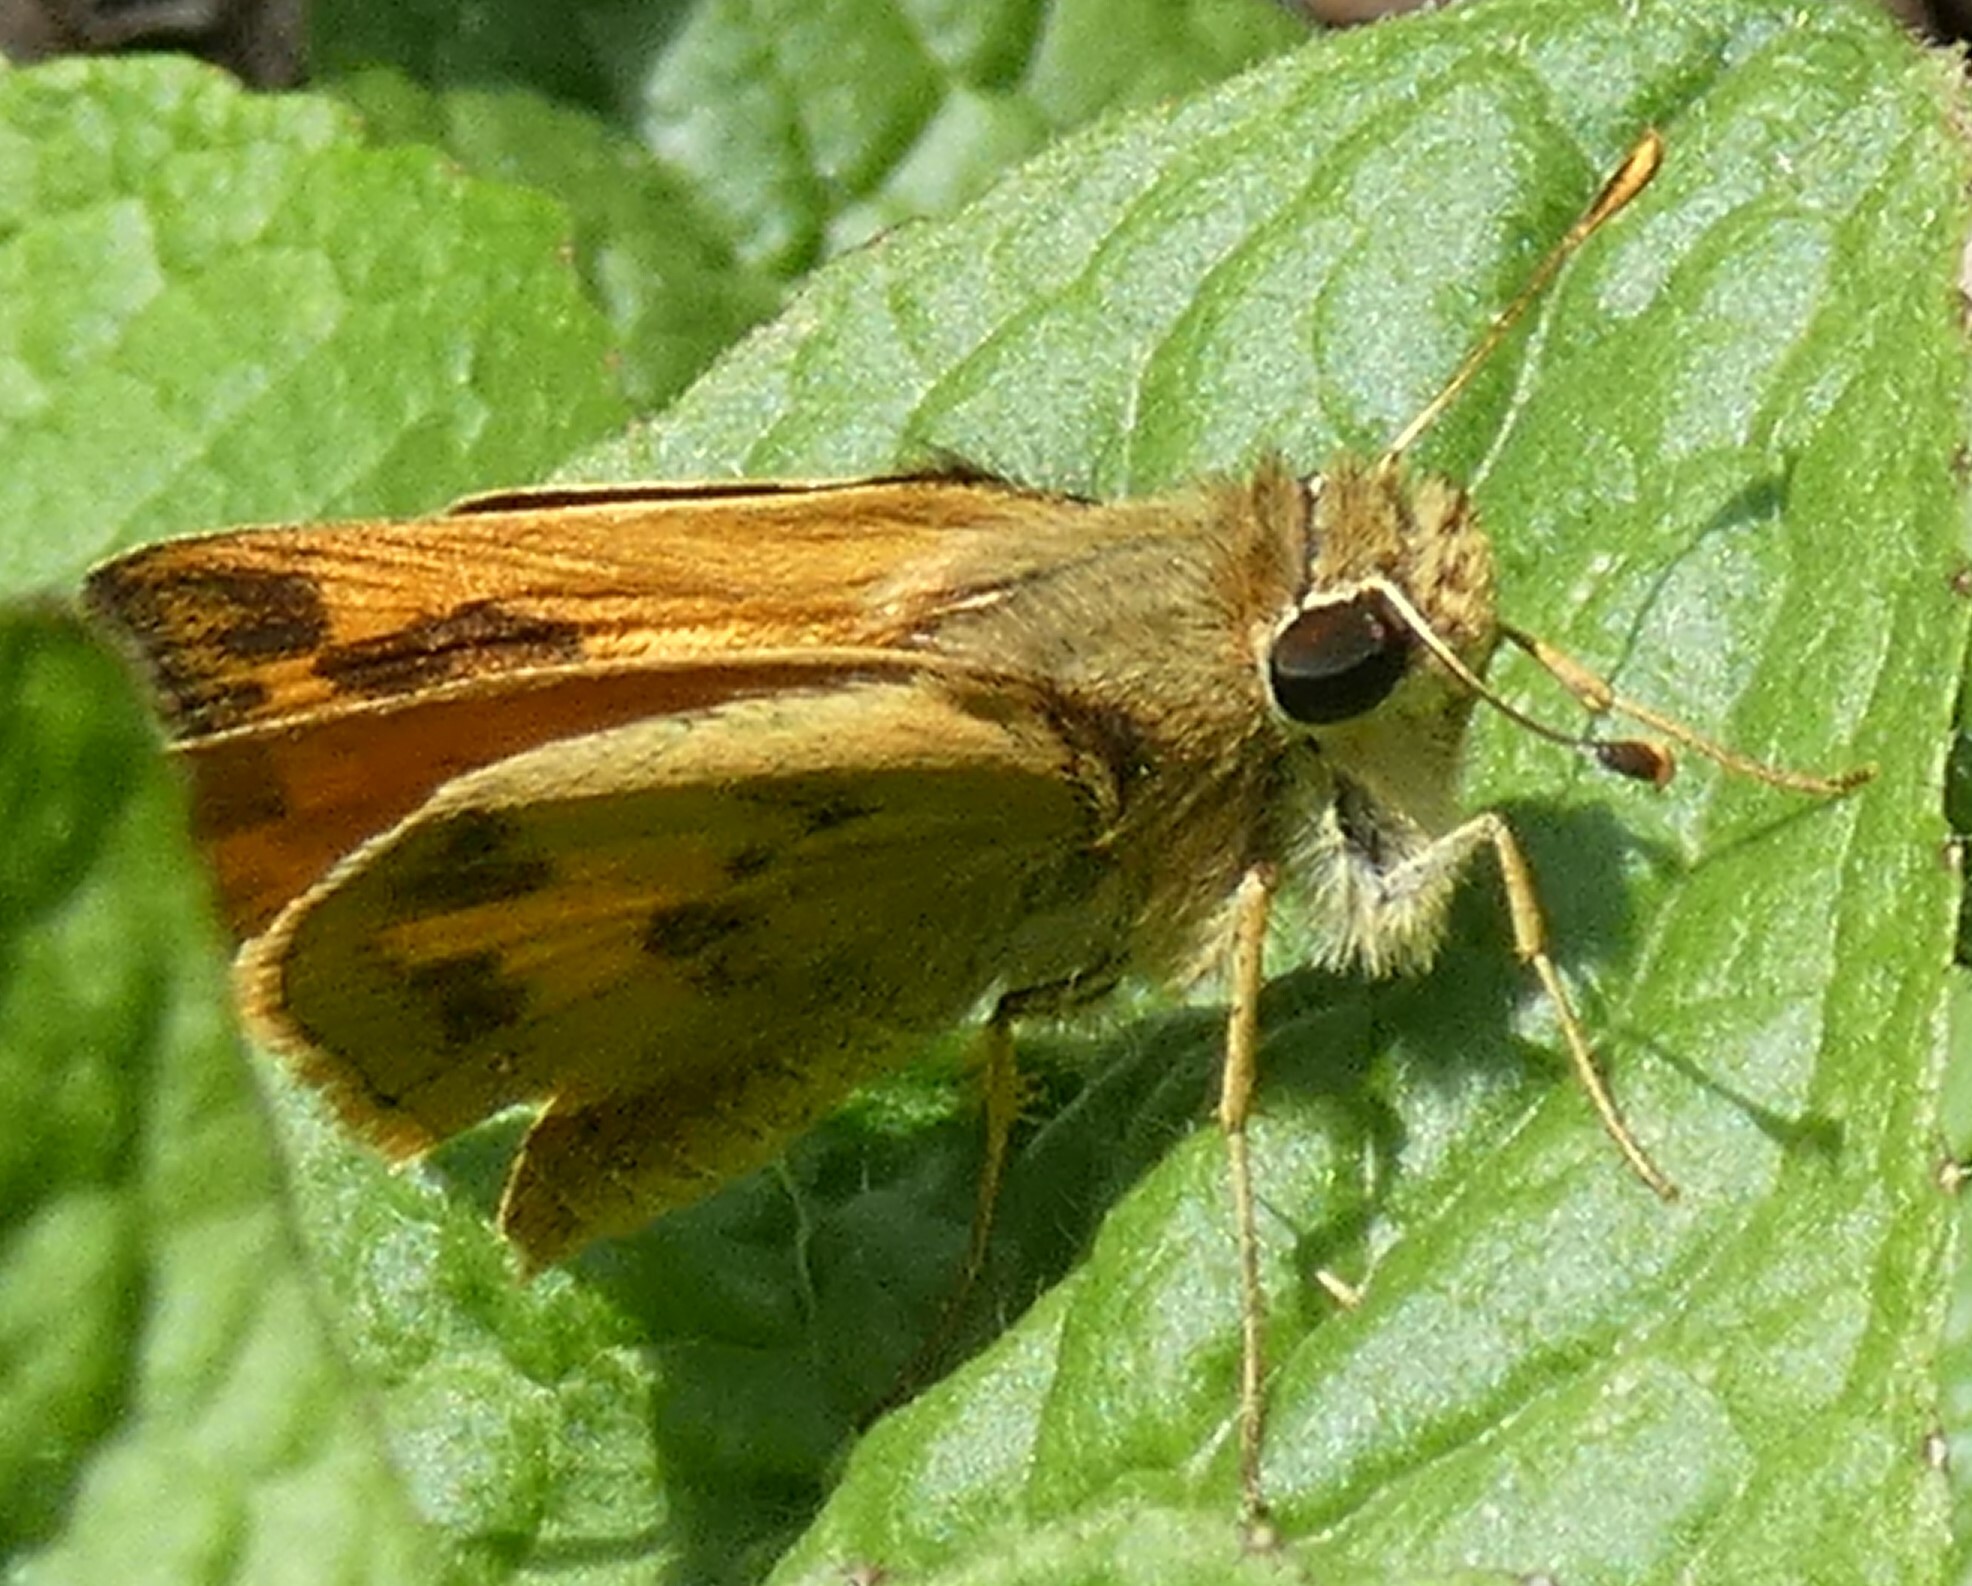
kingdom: Animalia
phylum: Arthropoda
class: Insecta
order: Lepidoptera
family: Hesperiidae
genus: Polites
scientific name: Polites vibex
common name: Whirlabout
